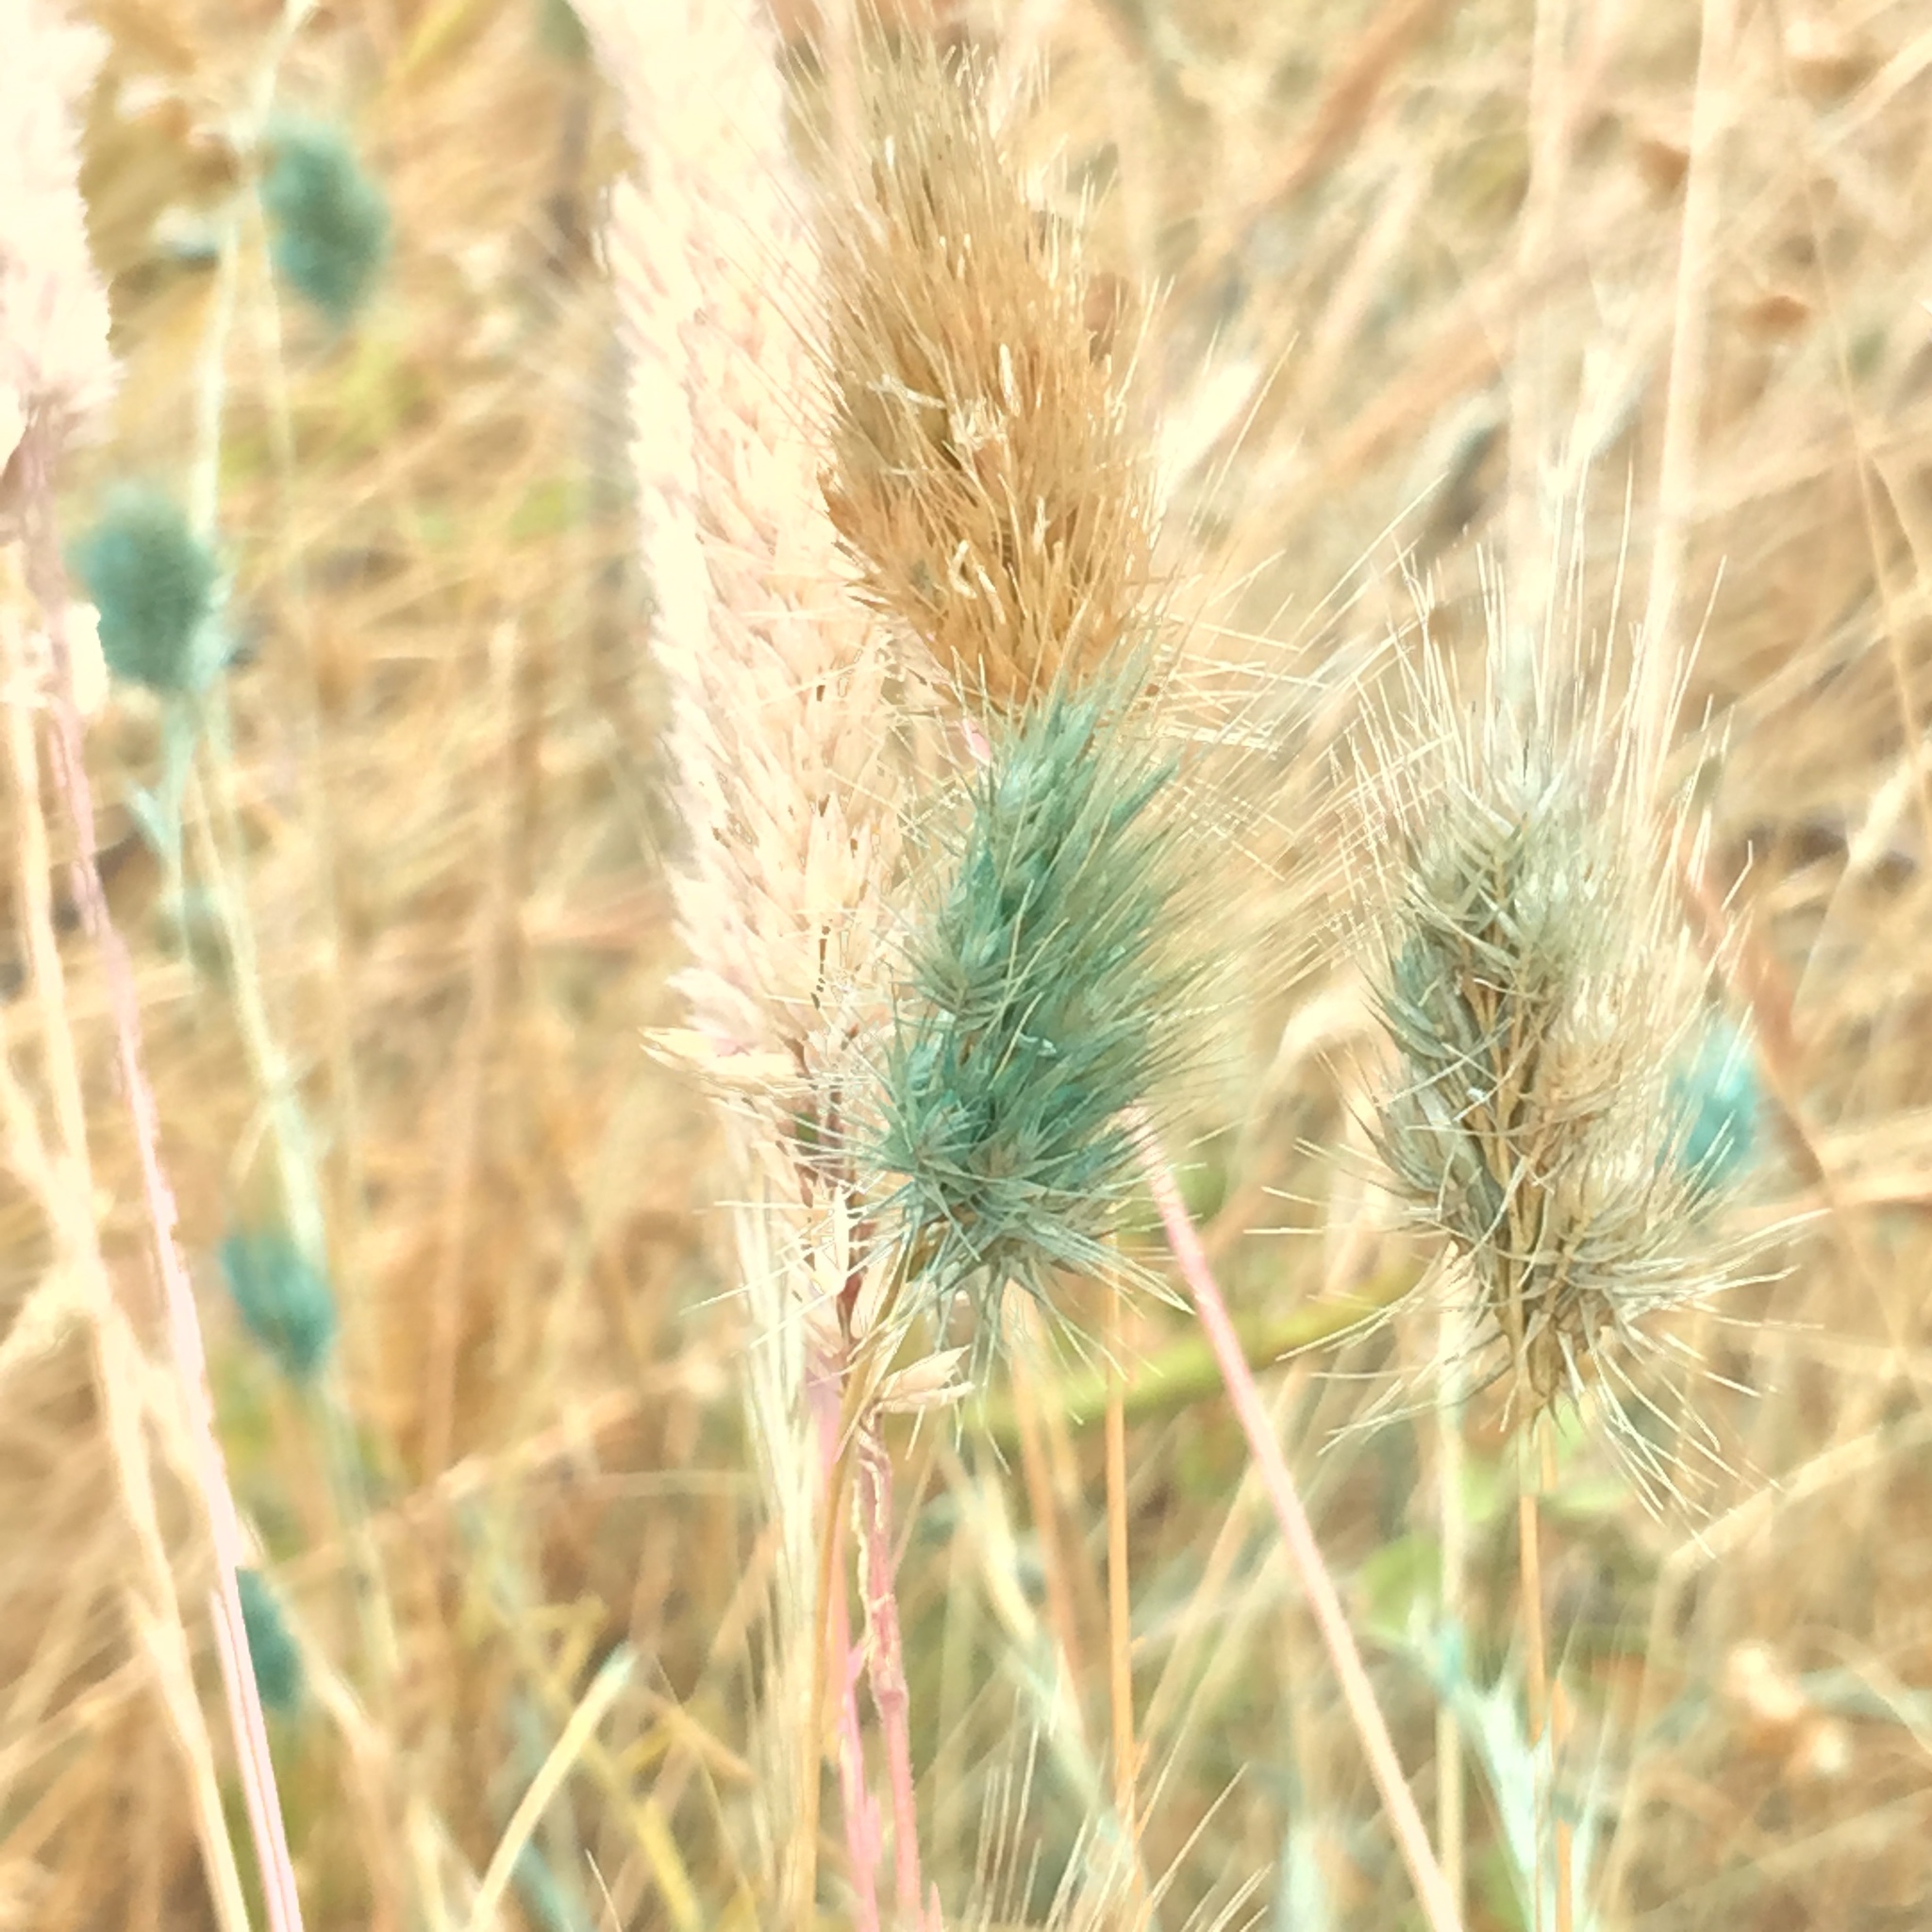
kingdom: Plantae
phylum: Tracheophyta
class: Liliopsida
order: Poales
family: Poaceae
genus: Cynosurus
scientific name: Cynosurus echinatus
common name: Rough dog's-tail
